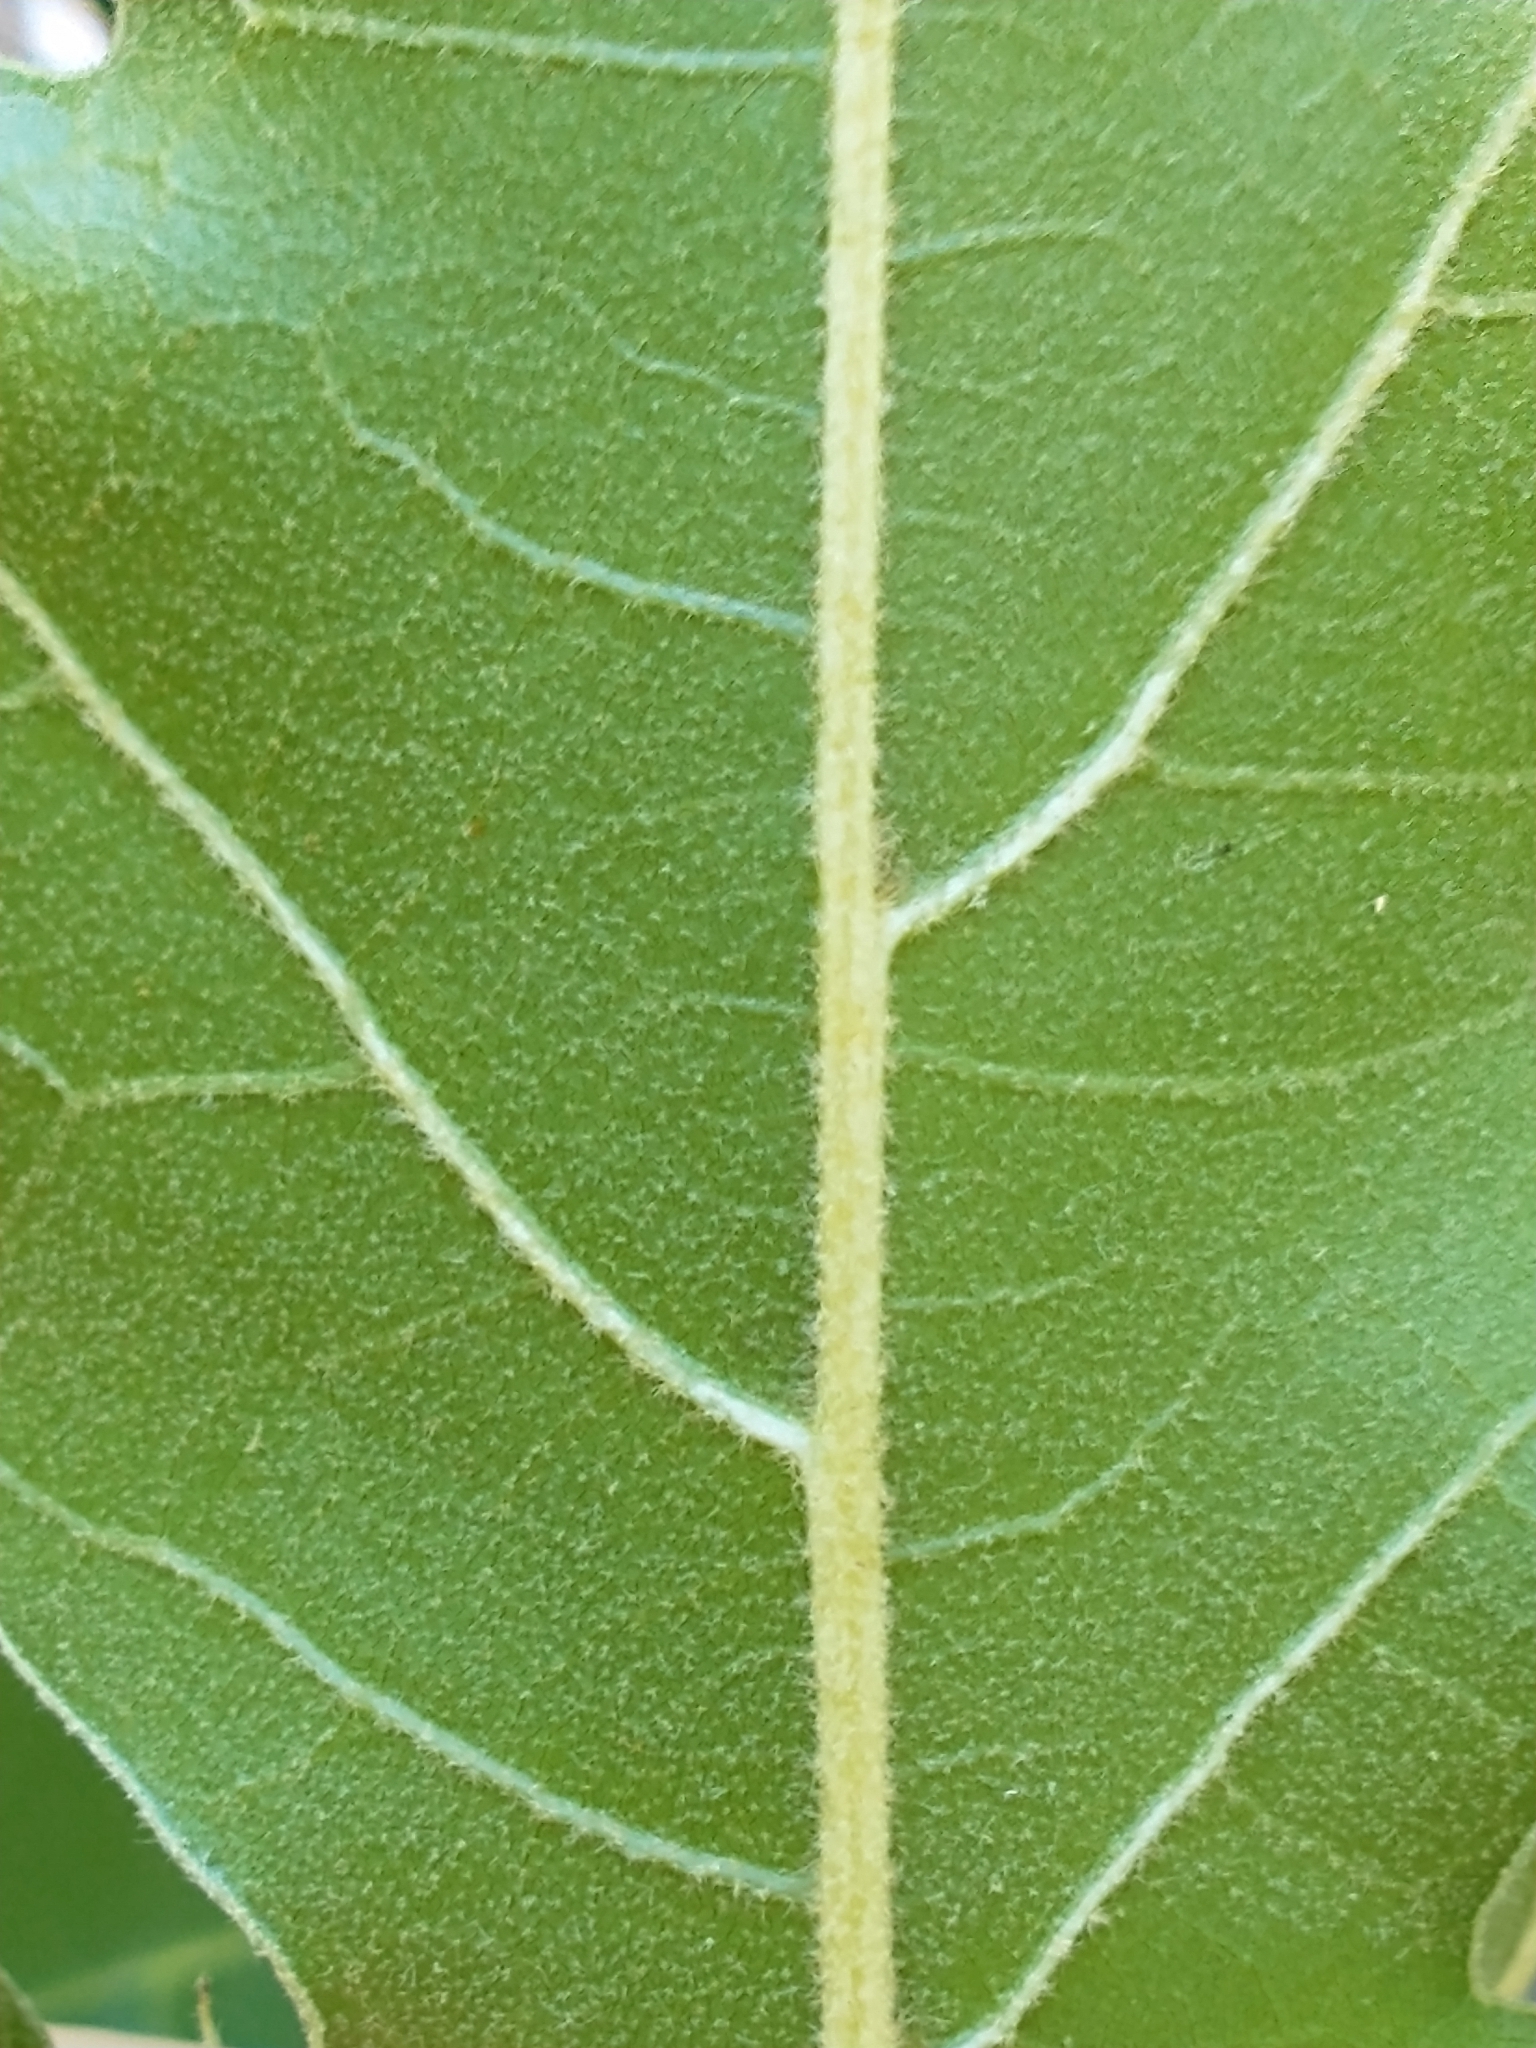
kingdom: Plantae
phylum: Tracheophyta
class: Magnoliopsida
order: Fagales
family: Fagaceae
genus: Quercus
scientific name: Quercus velutina
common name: Black oak
